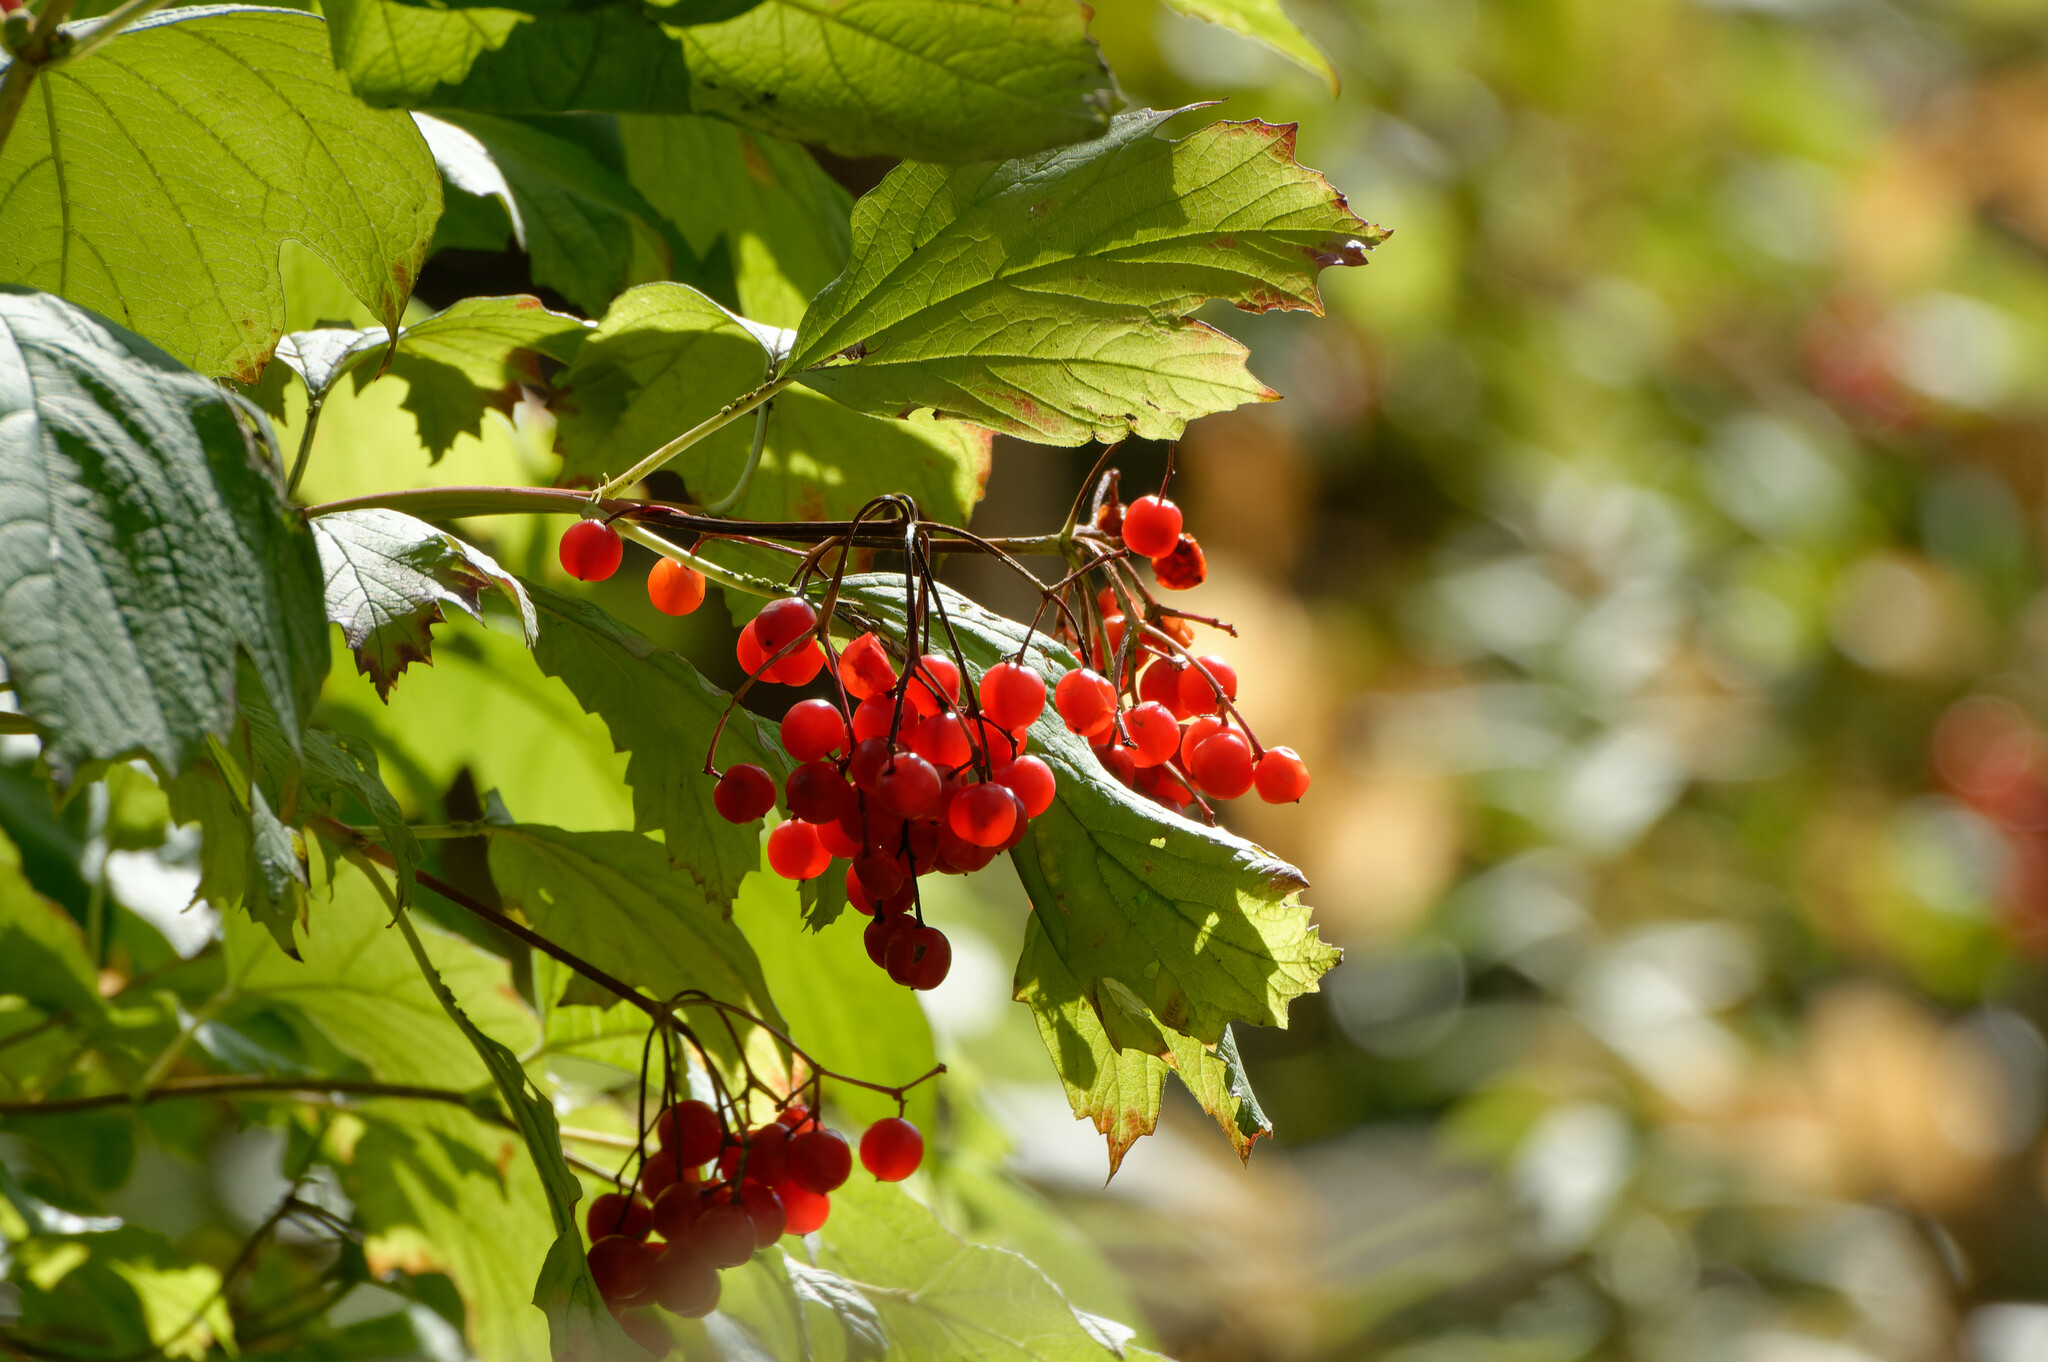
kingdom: Plantae
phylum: Tracheophyta
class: Magnoliopsida
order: Dipsacales
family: Viburnaceae
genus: Viburnum
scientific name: Viburnum opulus
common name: Guelder-rose
